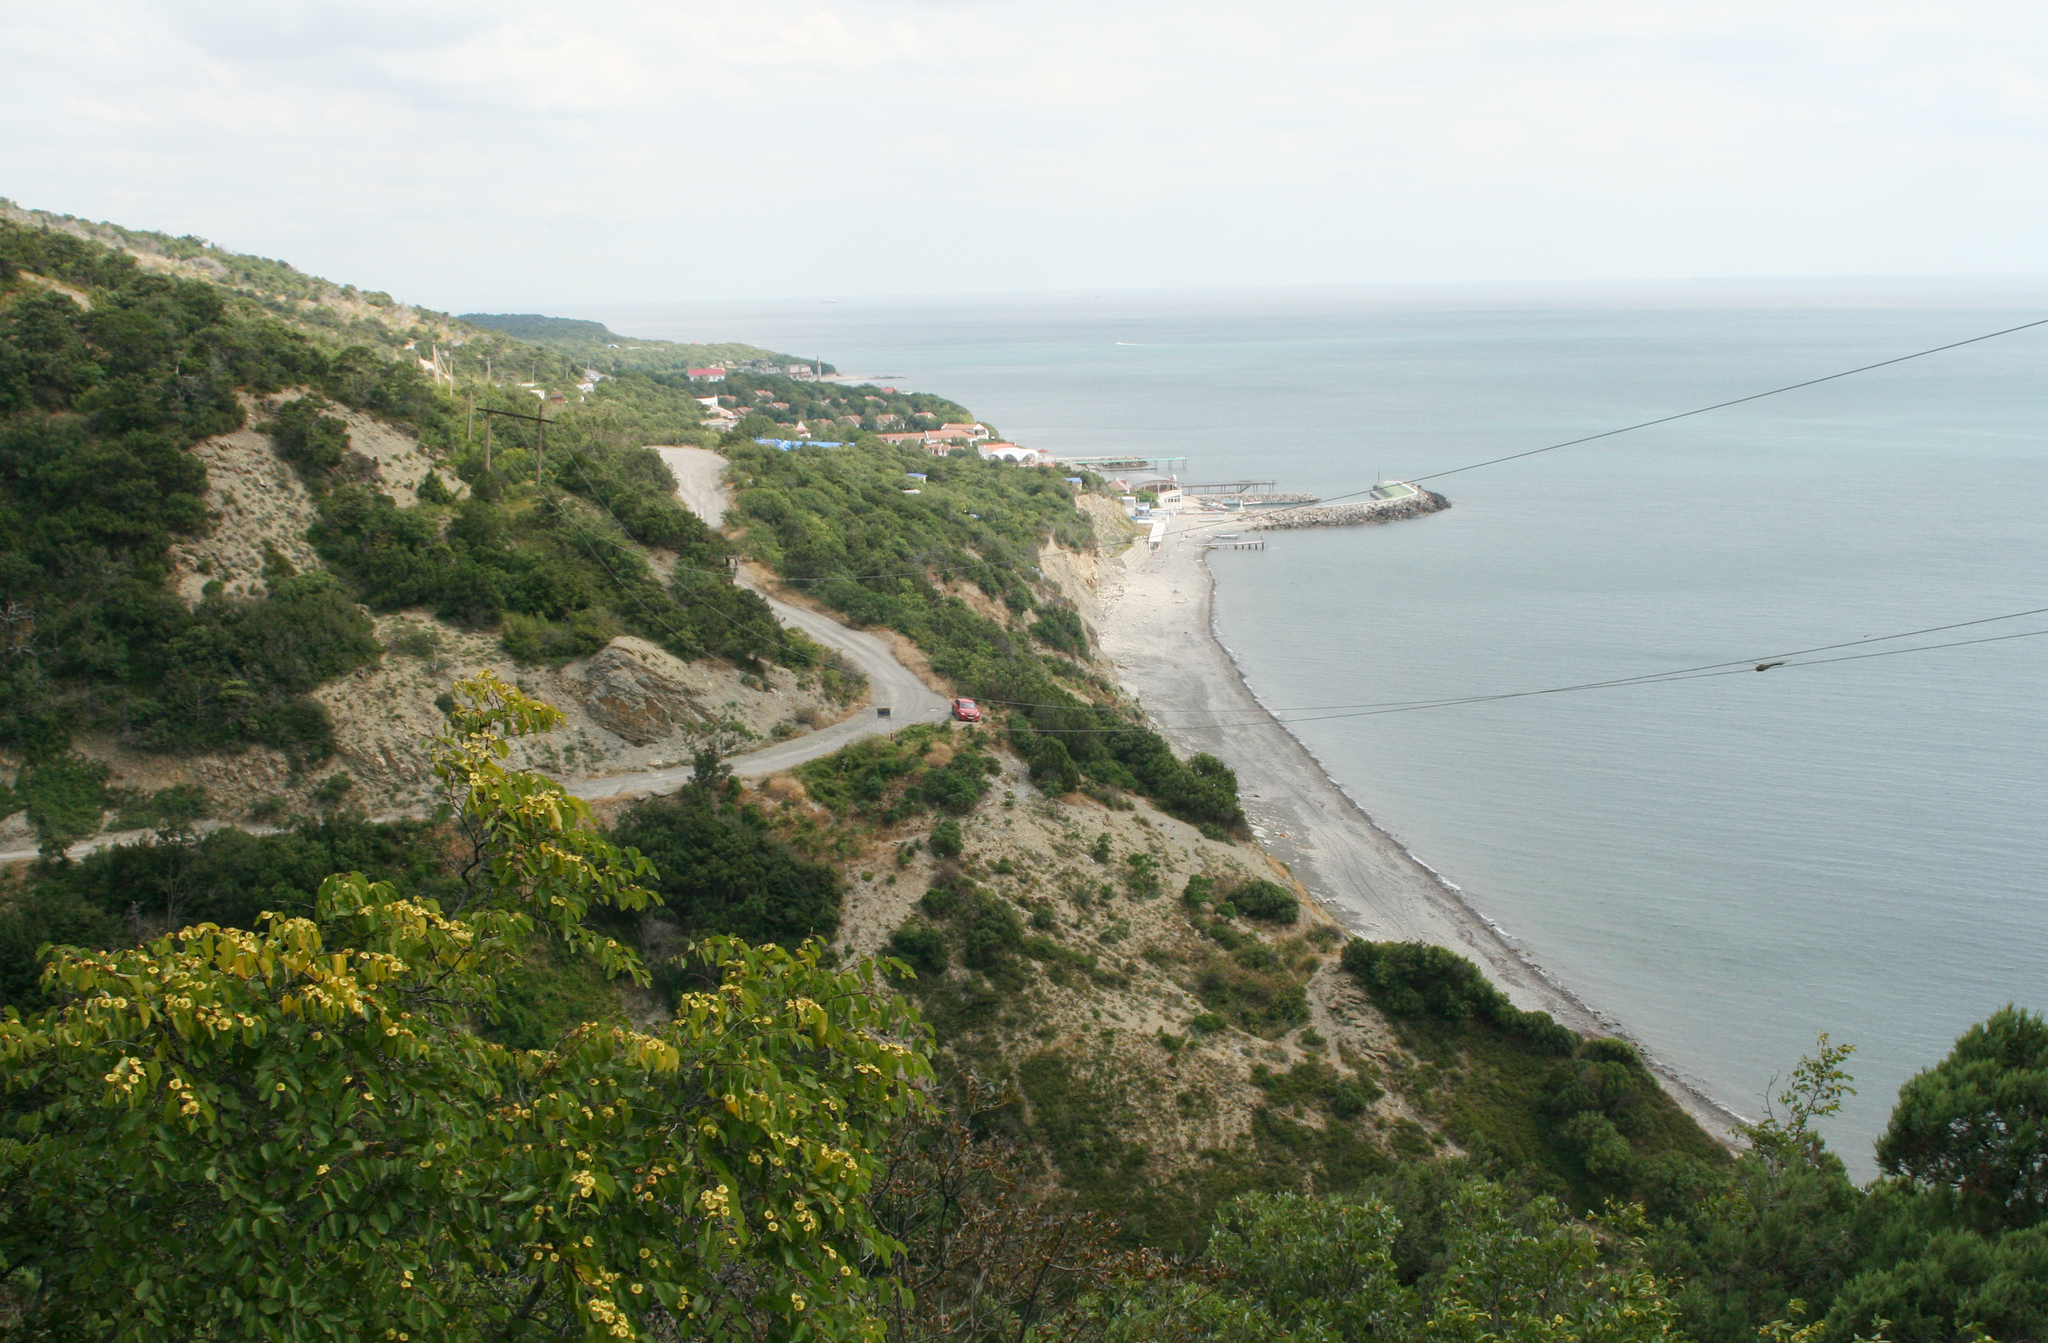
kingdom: Plantae
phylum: Tracheophyta
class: Magnoliopsida
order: Rosales
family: Rhamnaceae
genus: Paliurus
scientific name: Paliurus spina-christi
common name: Jeruselem thorn
